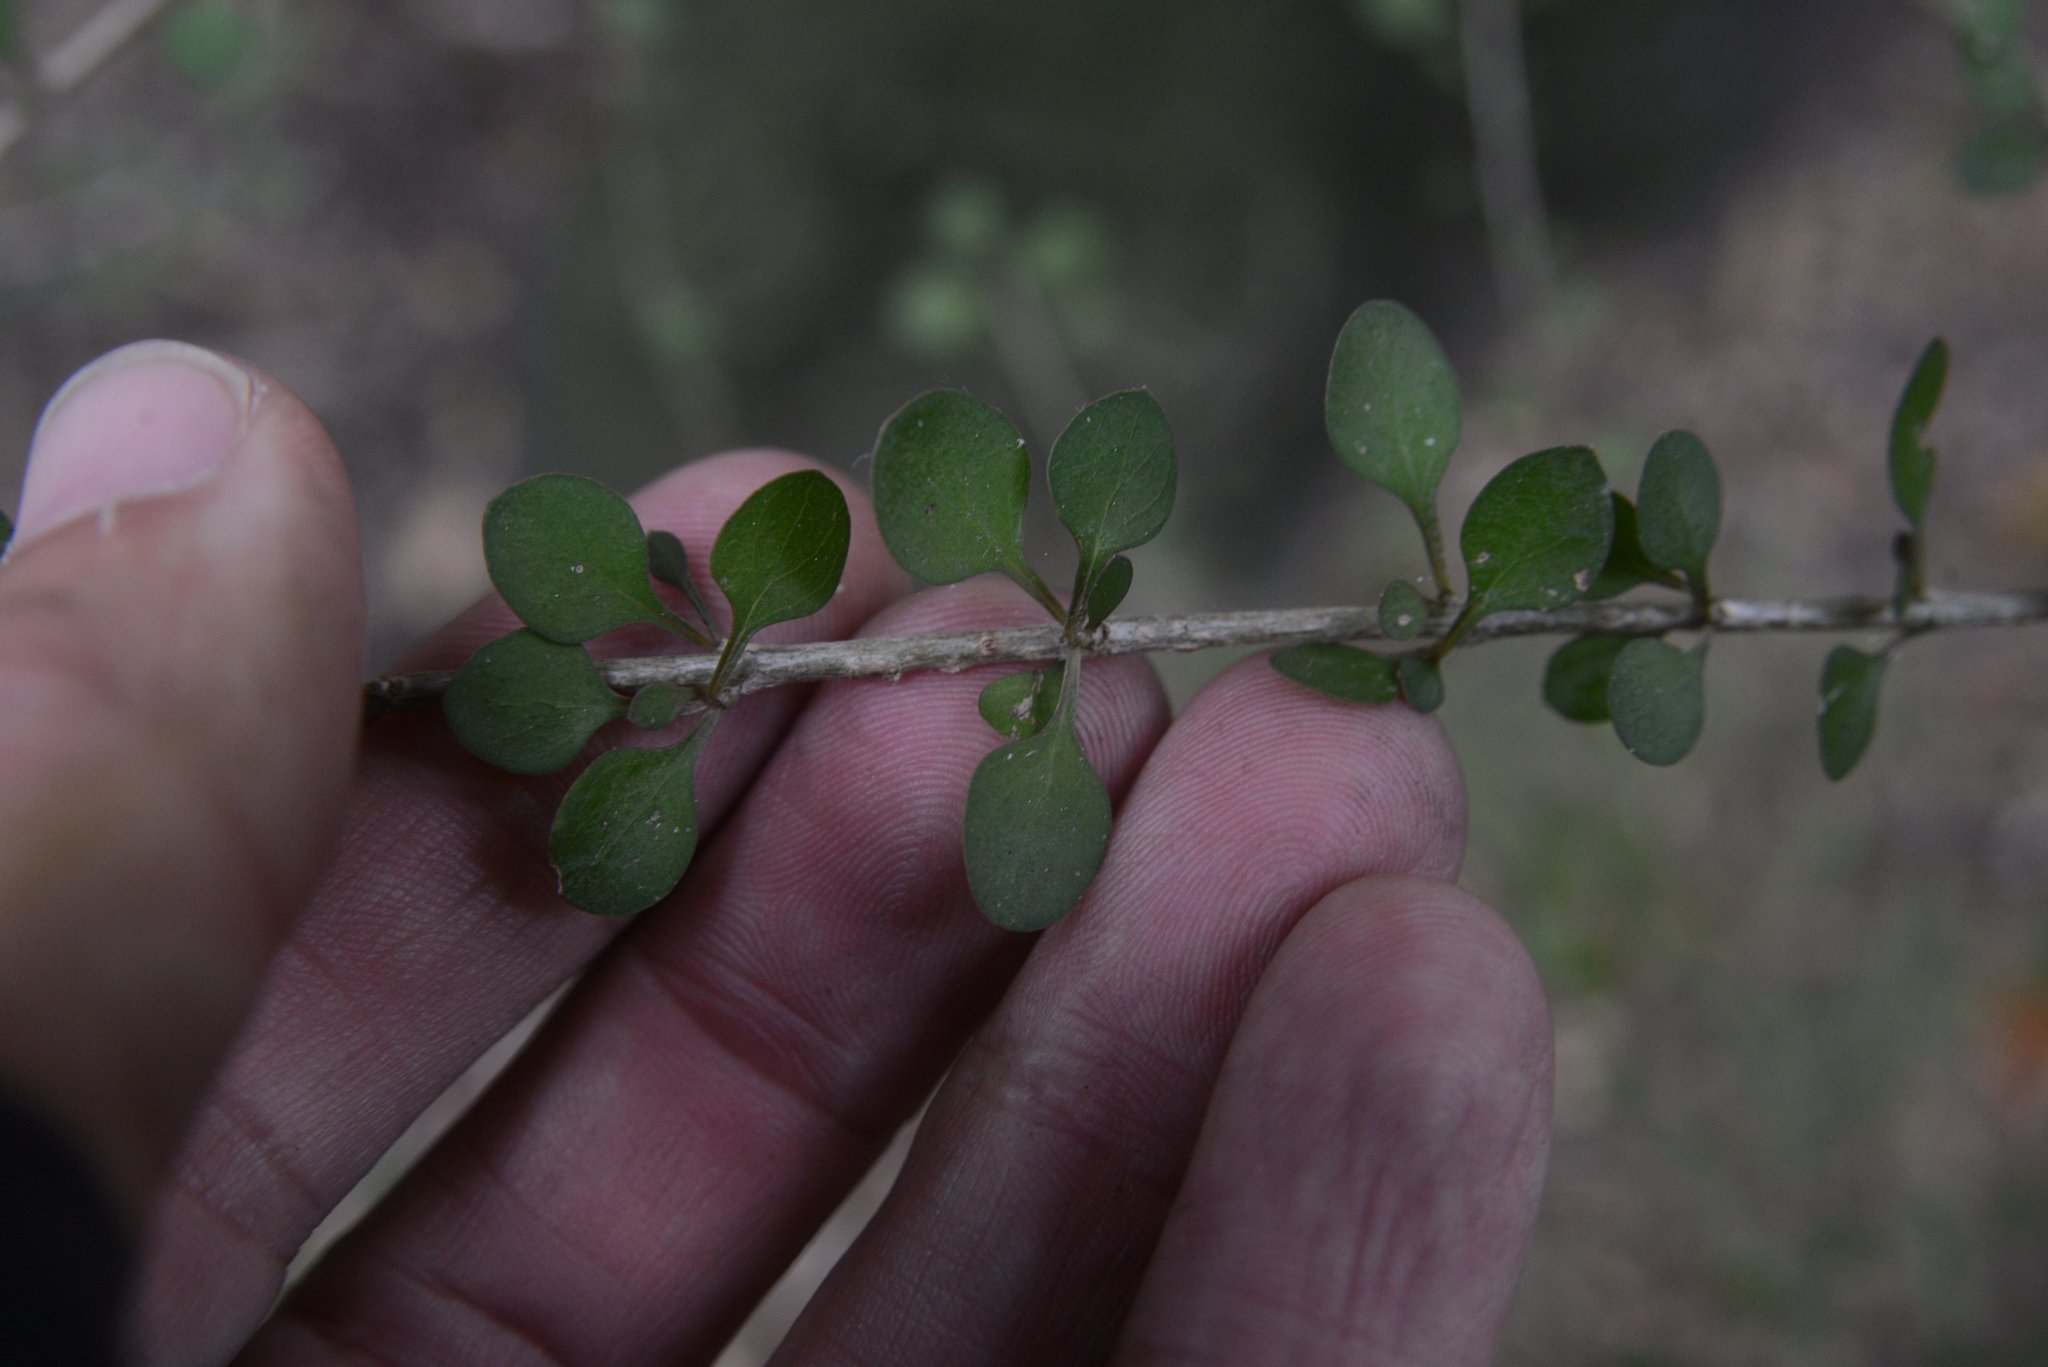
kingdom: Plantae
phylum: Tracheophyta
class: Magnoliopsida
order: Gentianales
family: Rubiaceae
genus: Coprosma
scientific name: Coprosma virescens
